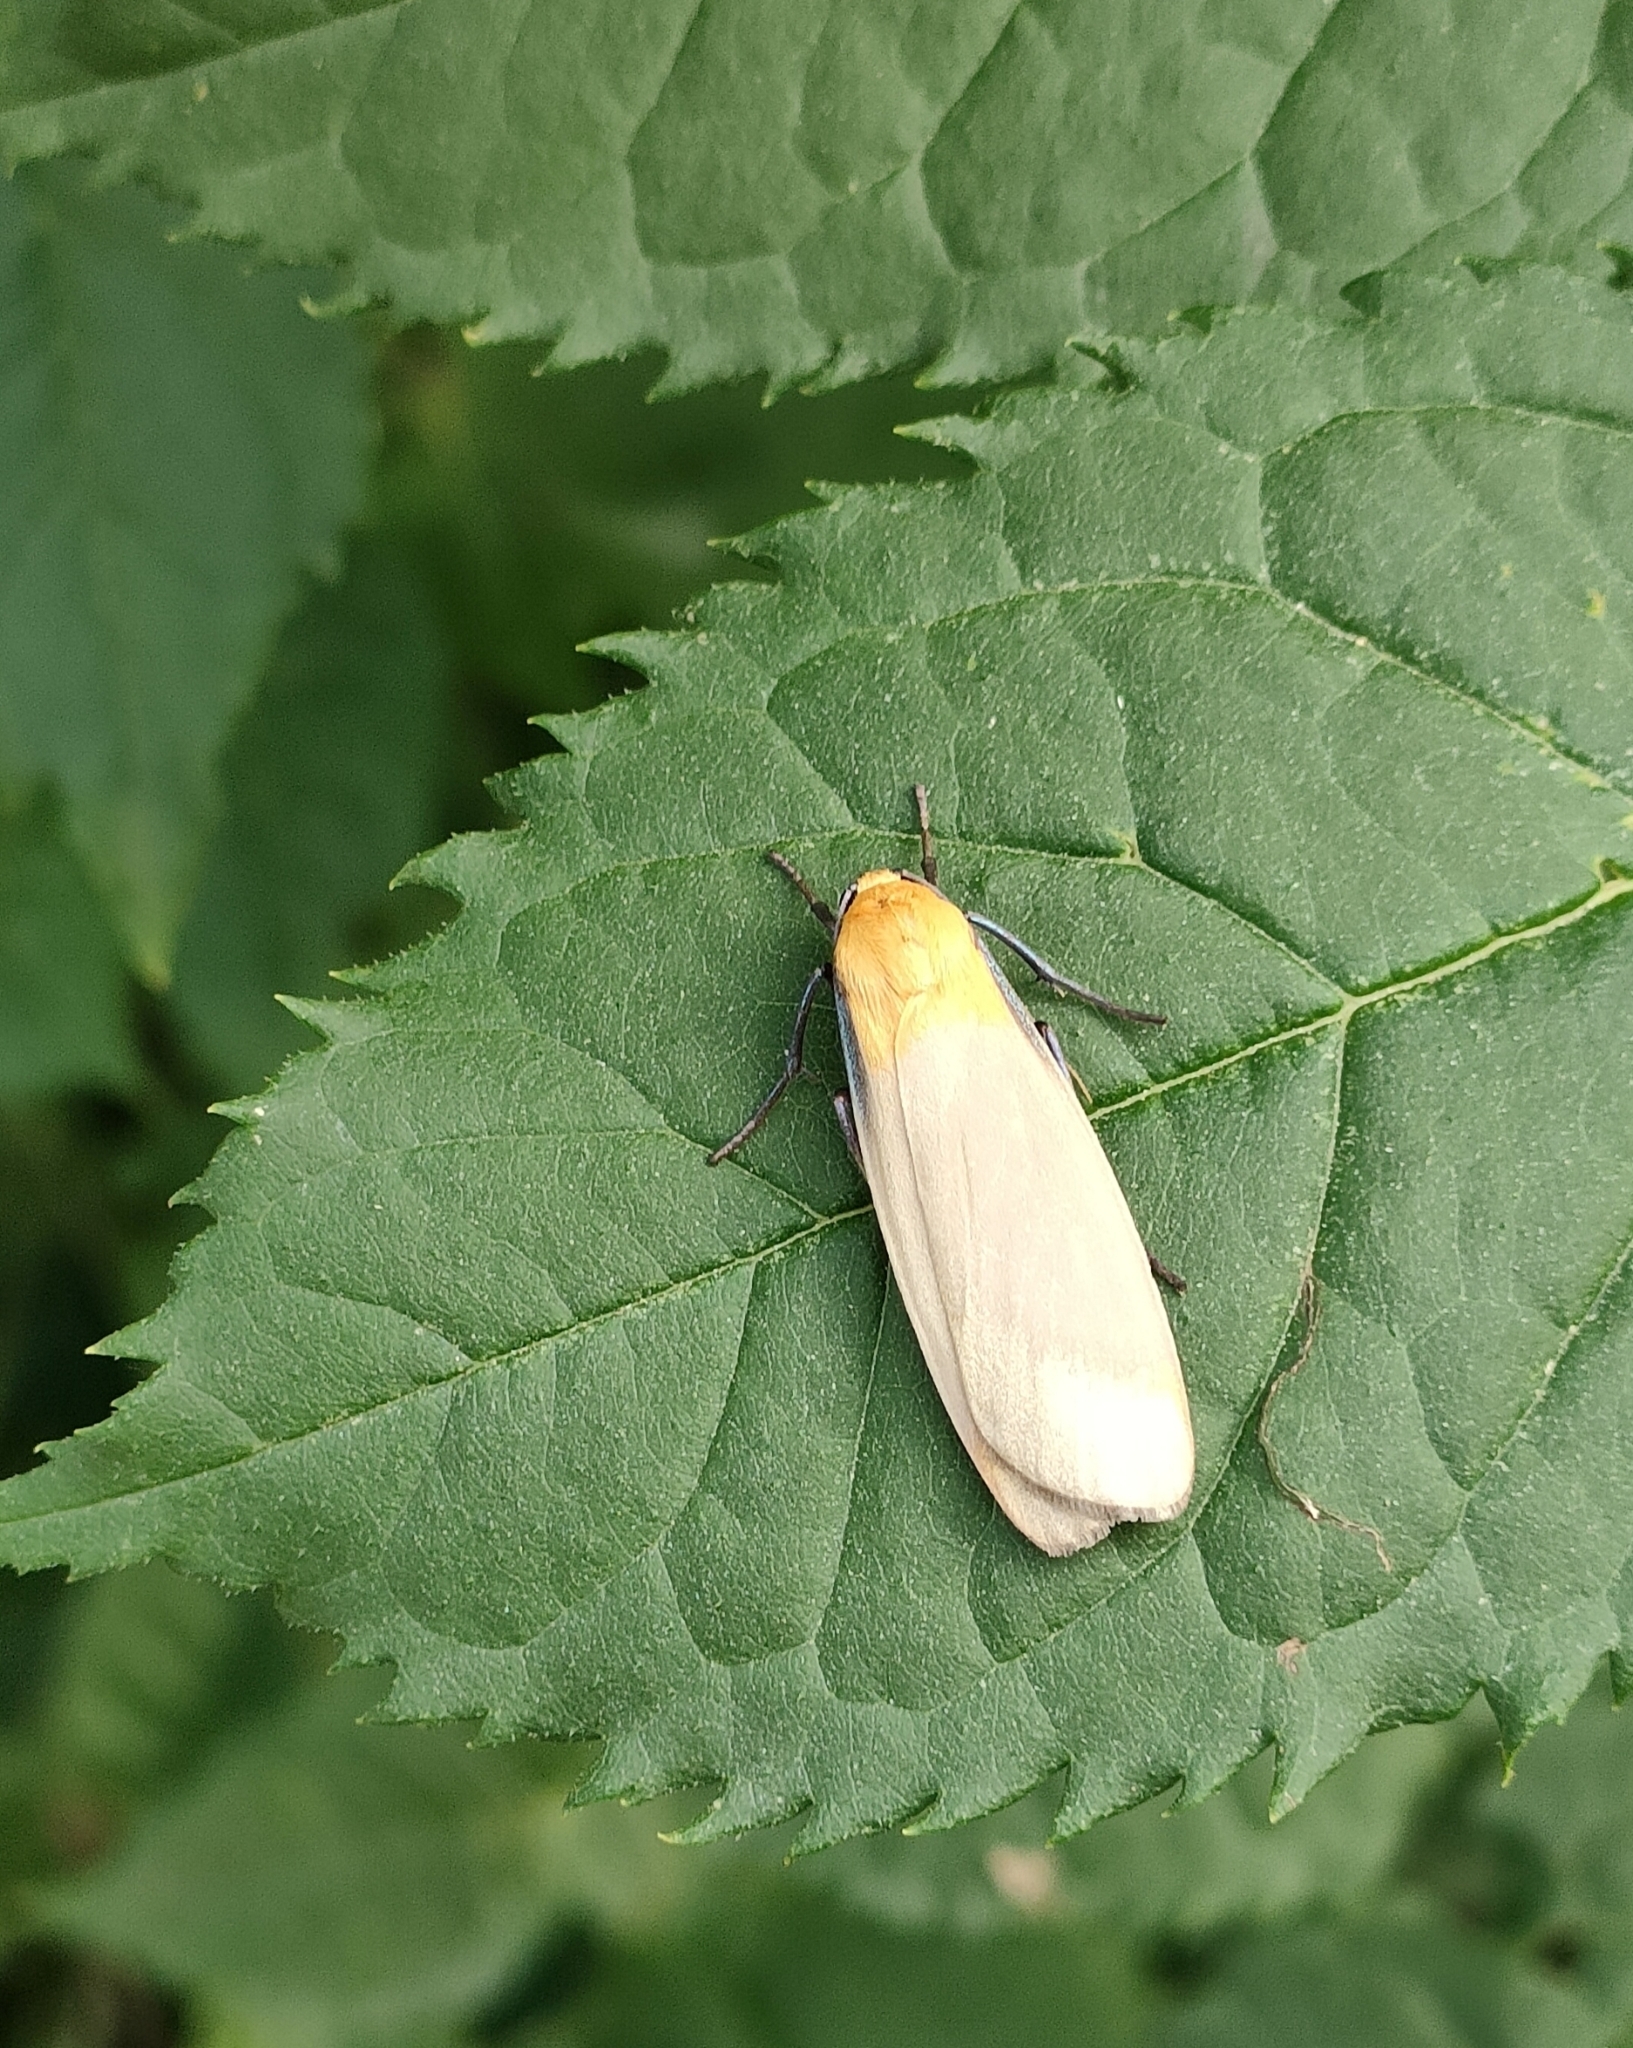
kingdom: Animalia
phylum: Arthropoda
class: Insecta
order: Lepidoptera
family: Erebidae
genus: Lithosia
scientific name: Lithosia quadra
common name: Four-spotted footman
